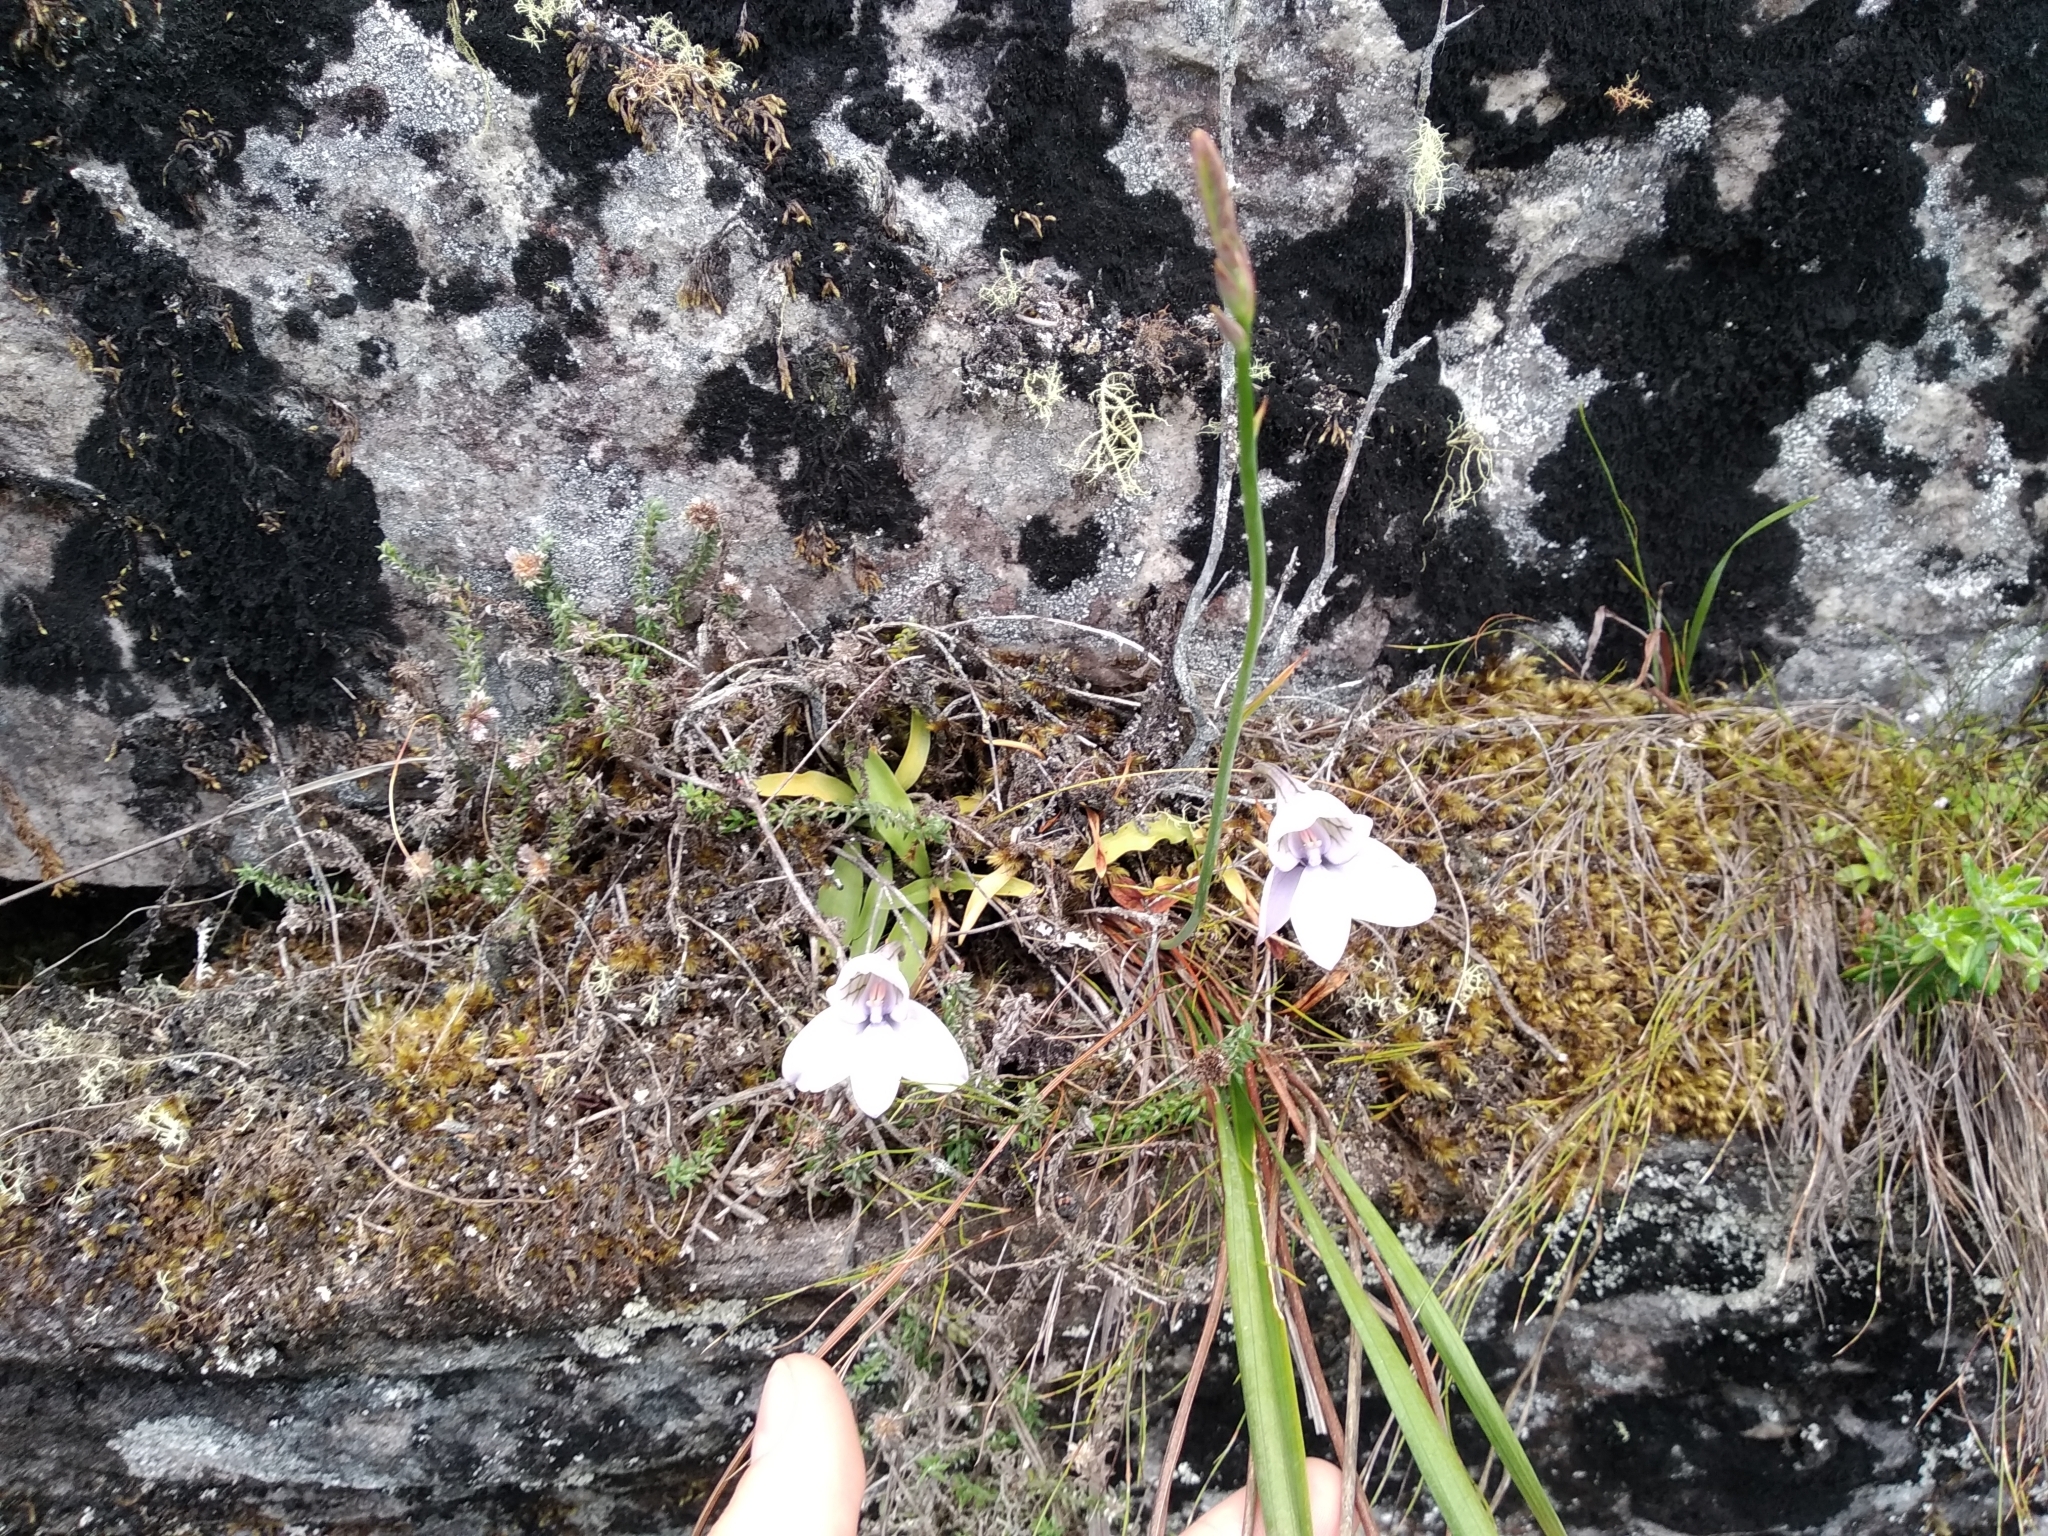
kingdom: Plantae
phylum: Tracheophyta
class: Liliopsida
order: Asparagales
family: Iridaceae
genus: Tritoniopsis
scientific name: Tritoniopsis unguicularis
